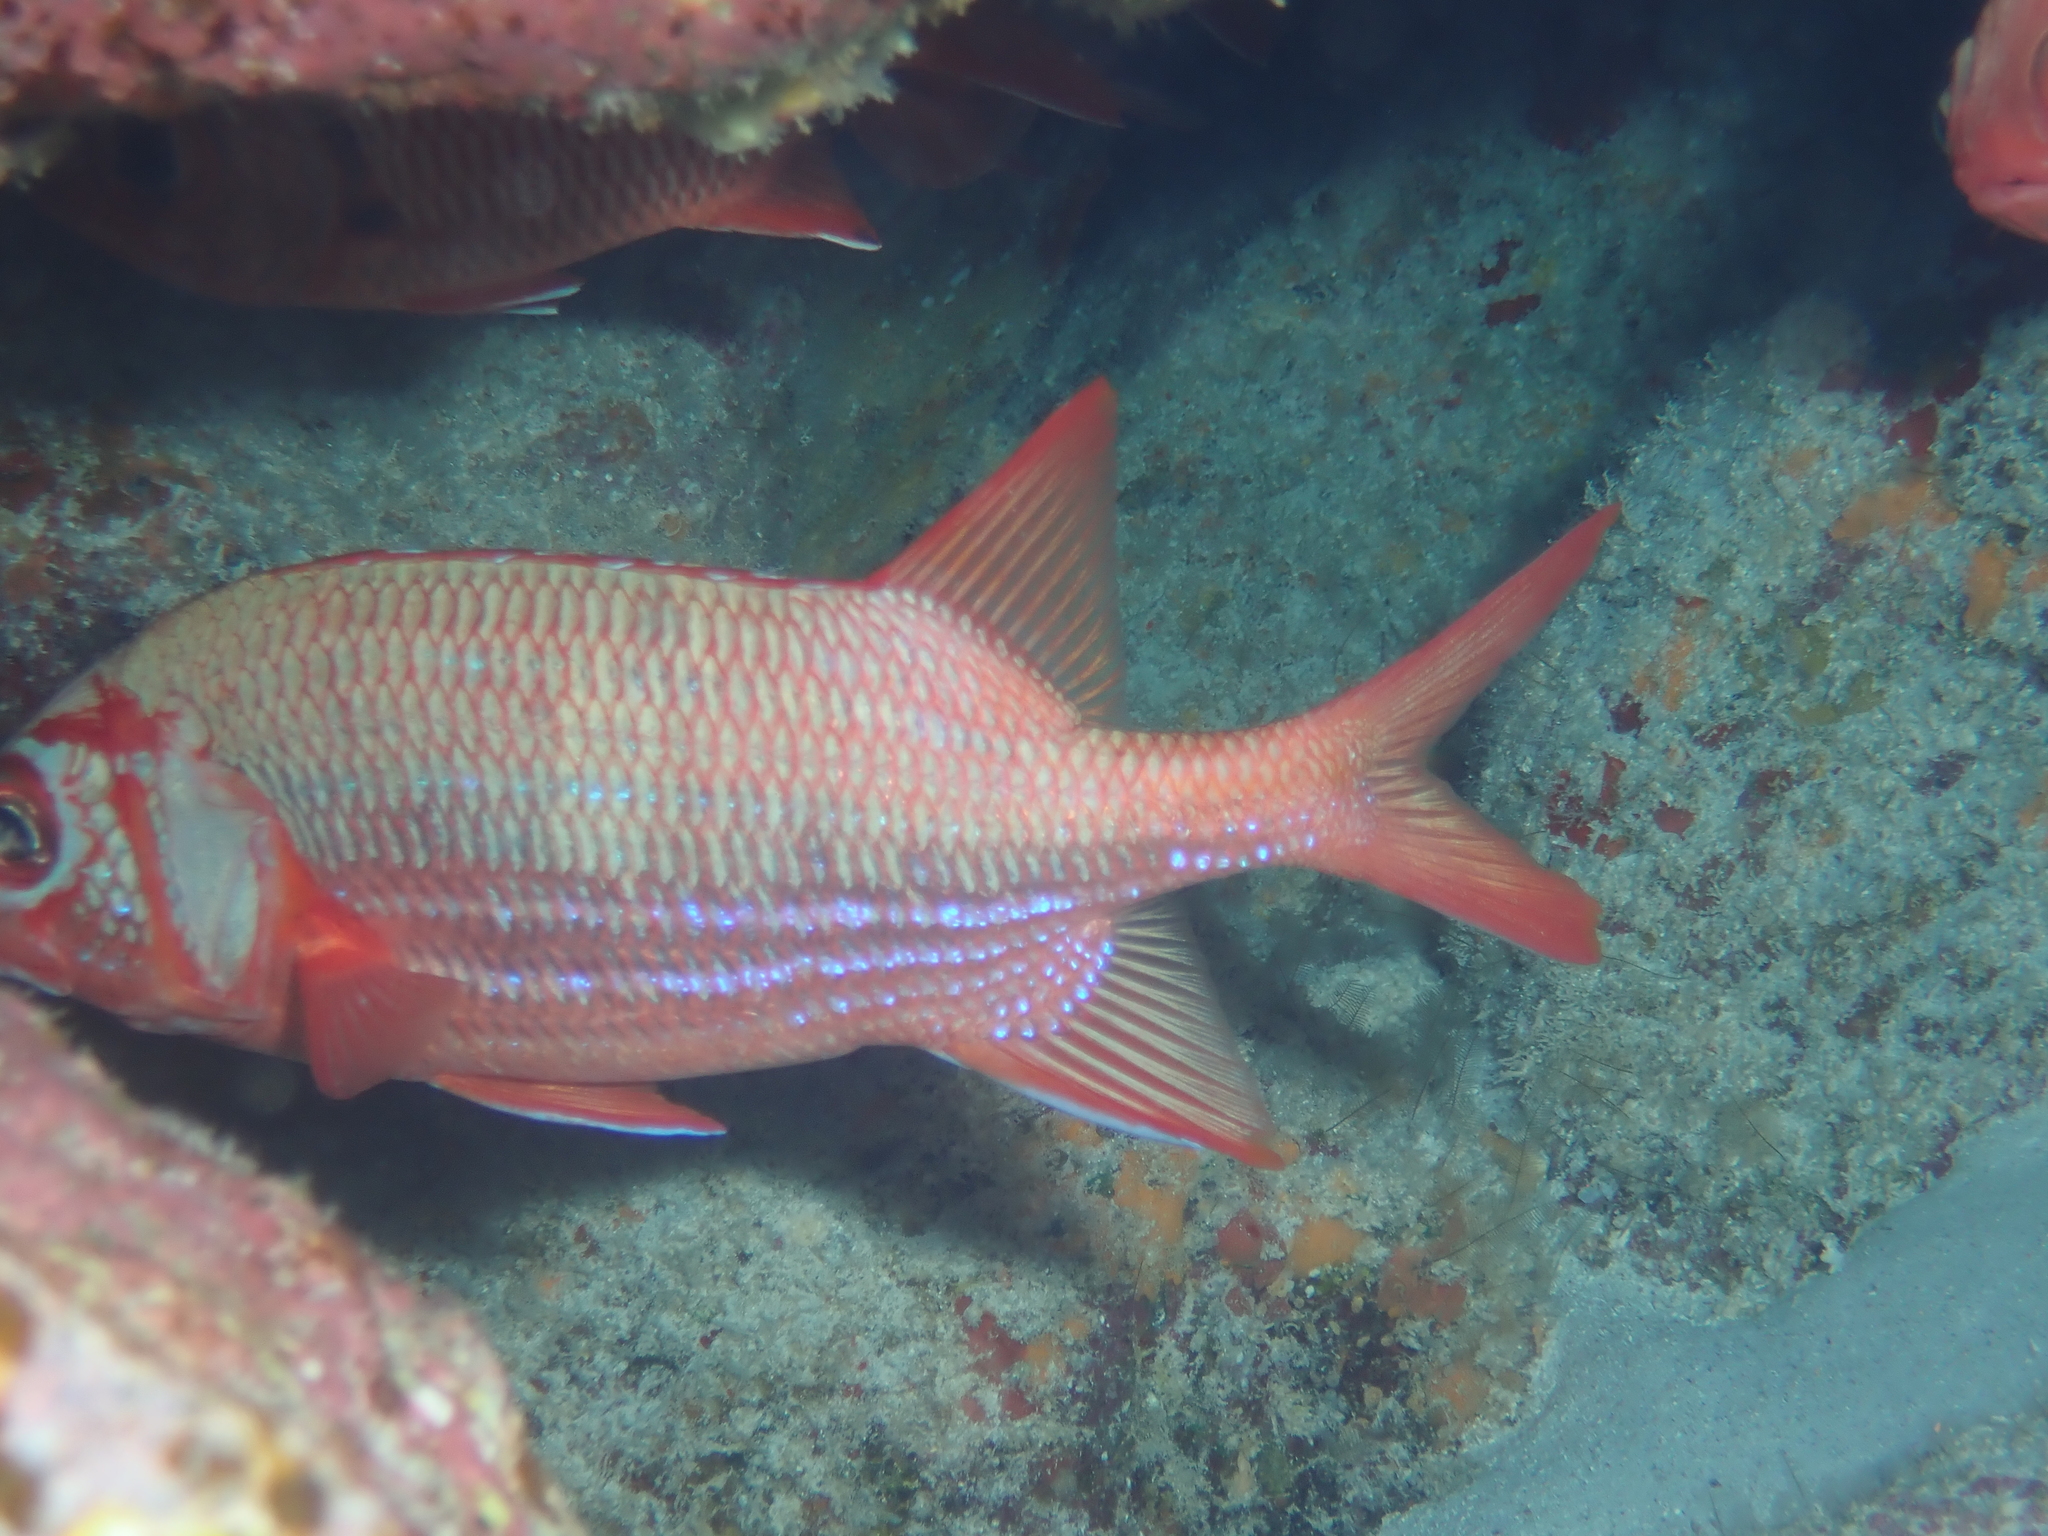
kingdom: Animalia
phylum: Chordata
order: Beryciformes
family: Holocentridae
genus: Sargocentron
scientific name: Sargocentron tiere
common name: Blue lined squirrelfish
